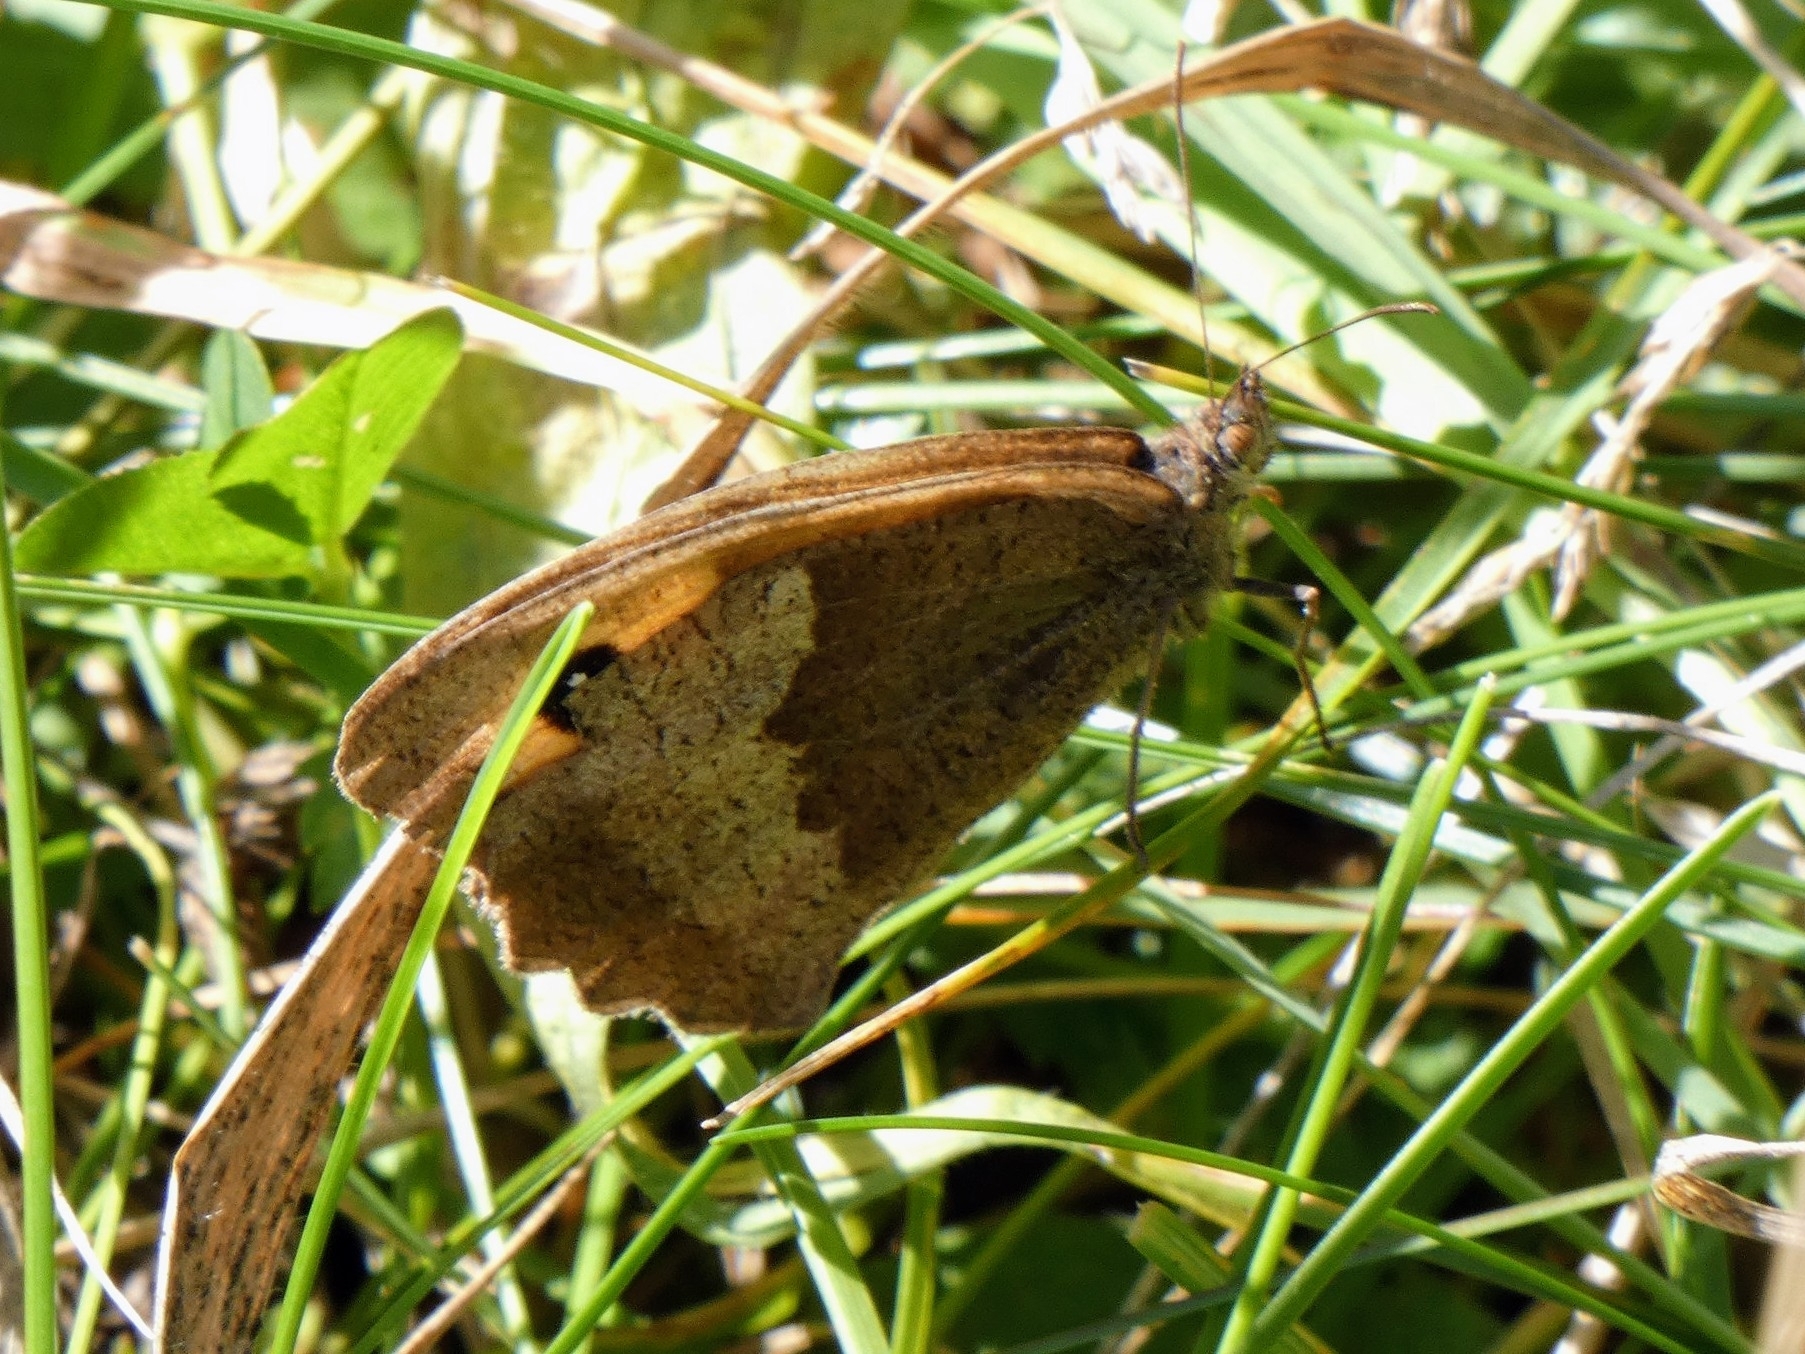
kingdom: Animalia
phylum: Arthropoda
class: Insecta
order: Lepidoptera
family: Nymphalidae
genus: Pyronia
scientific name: Pyronia tithonus
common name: Gatekeeper
